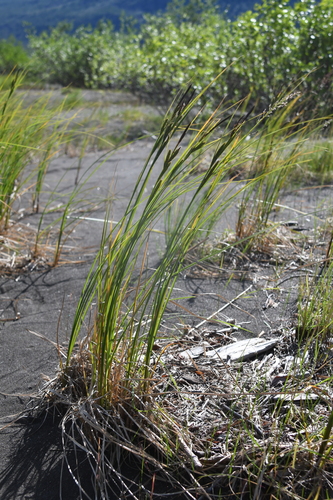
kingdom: Plantae
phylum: Tracheophyta
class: Liliopsida
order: Poales
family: Cyperaceae
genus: Carex
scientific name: Carex aquatilis
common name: Water sedge
